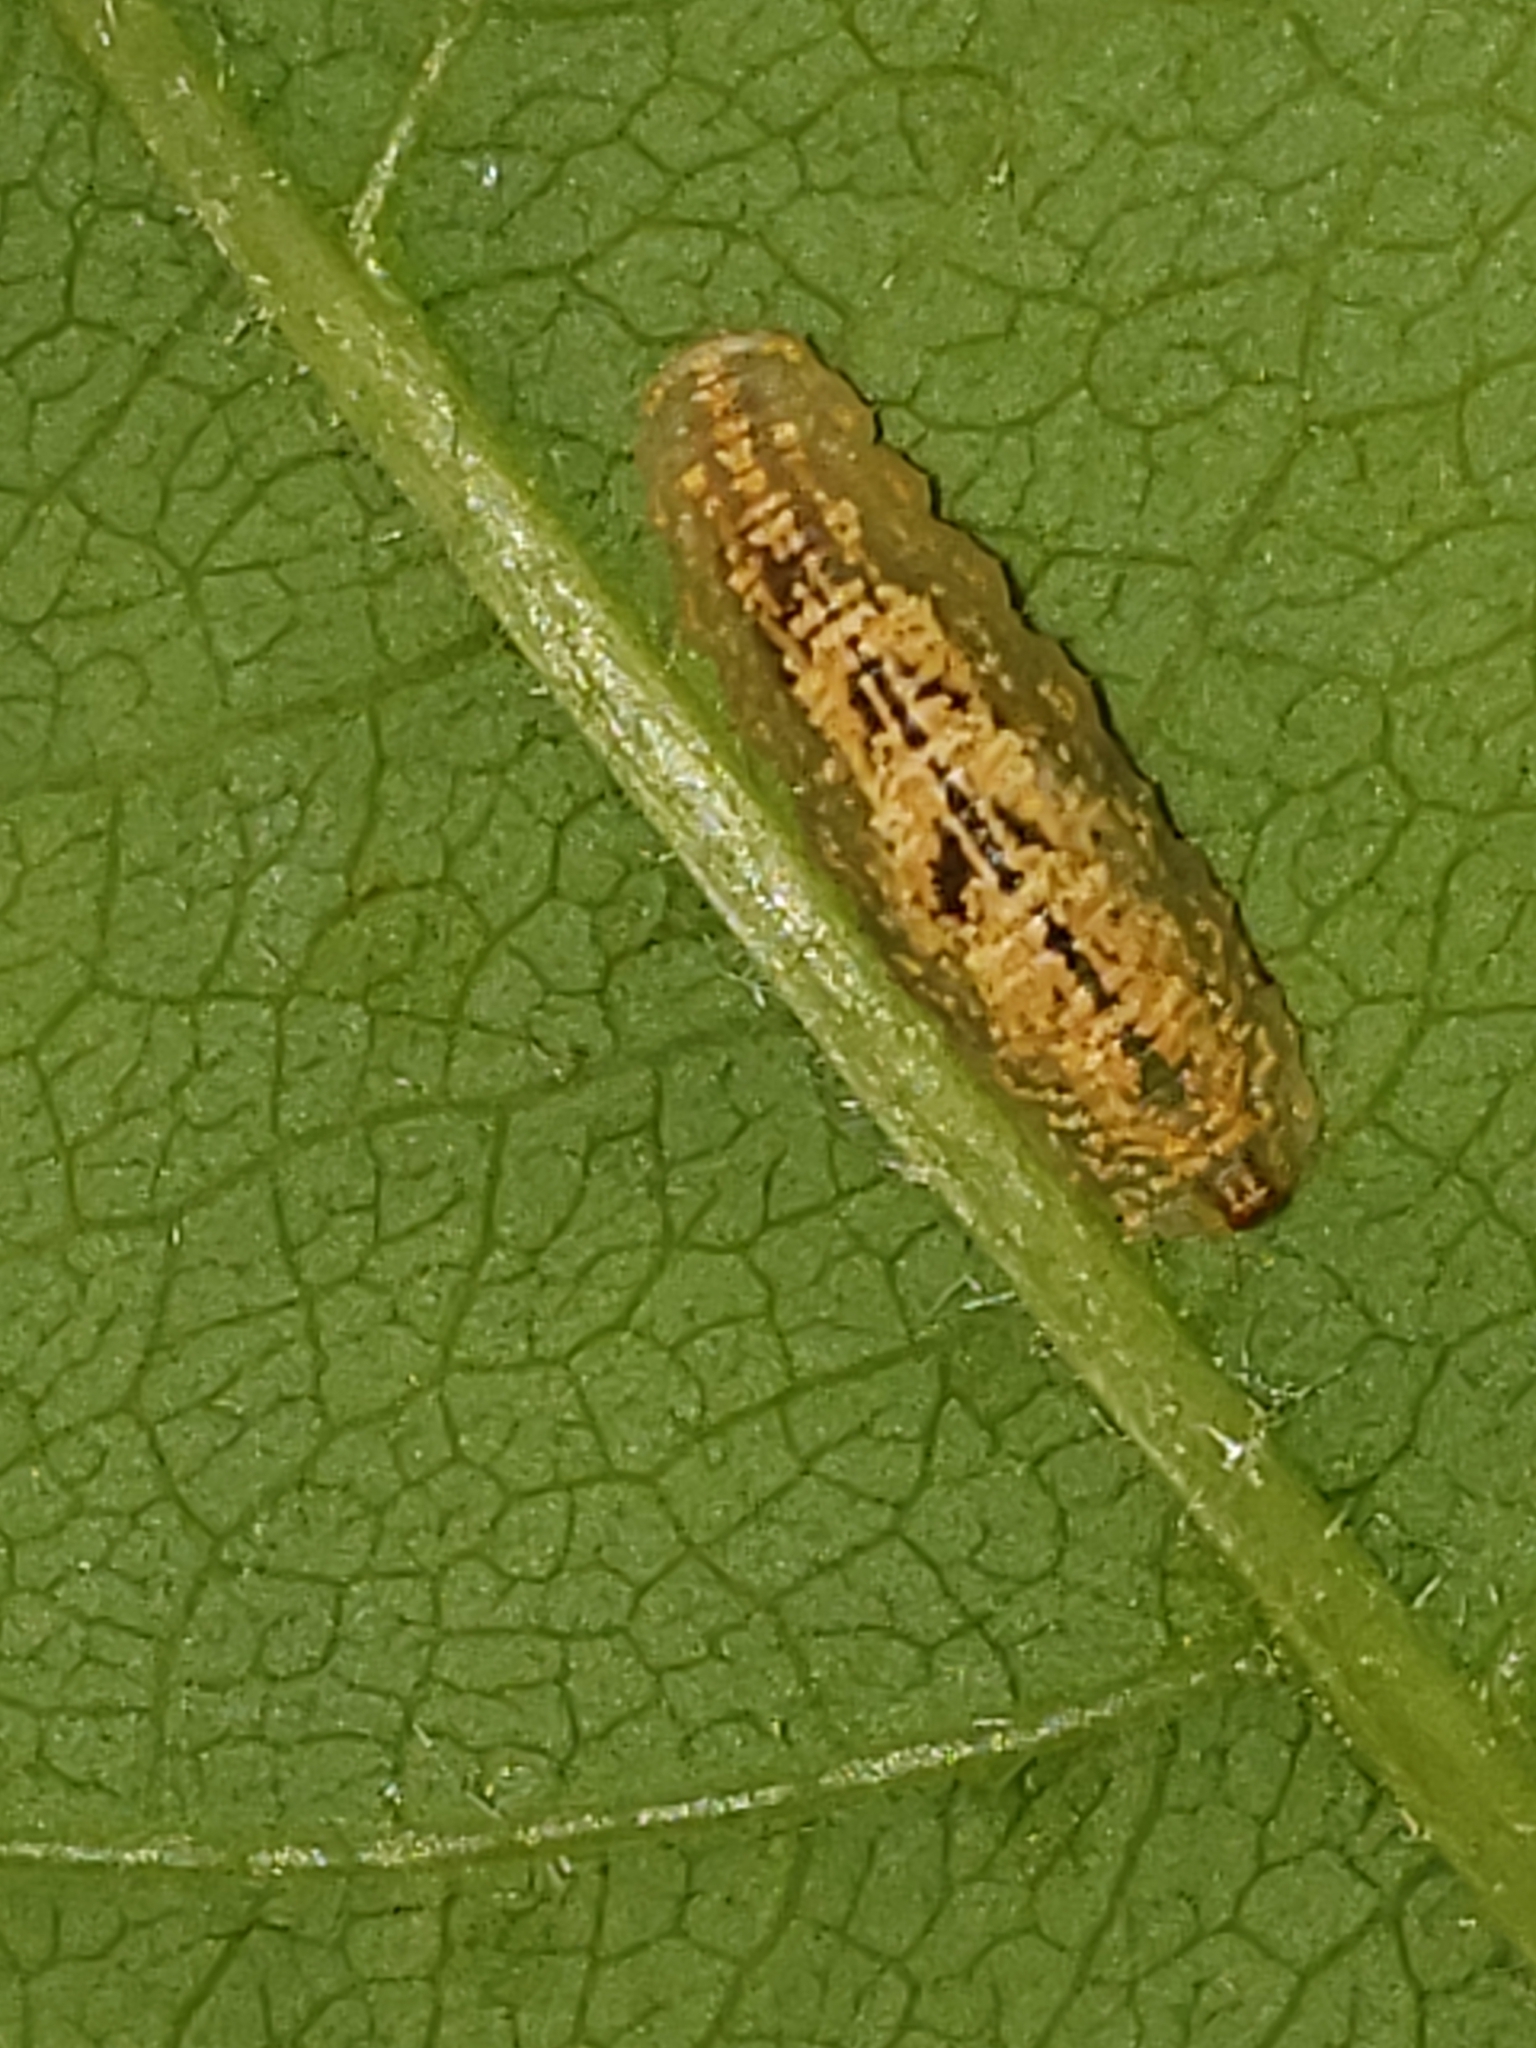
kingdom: Animalia
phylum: Arthropoda
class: Insecta
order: Diptera
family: Syrphidae
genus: Syrphus
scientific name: Syrphus
